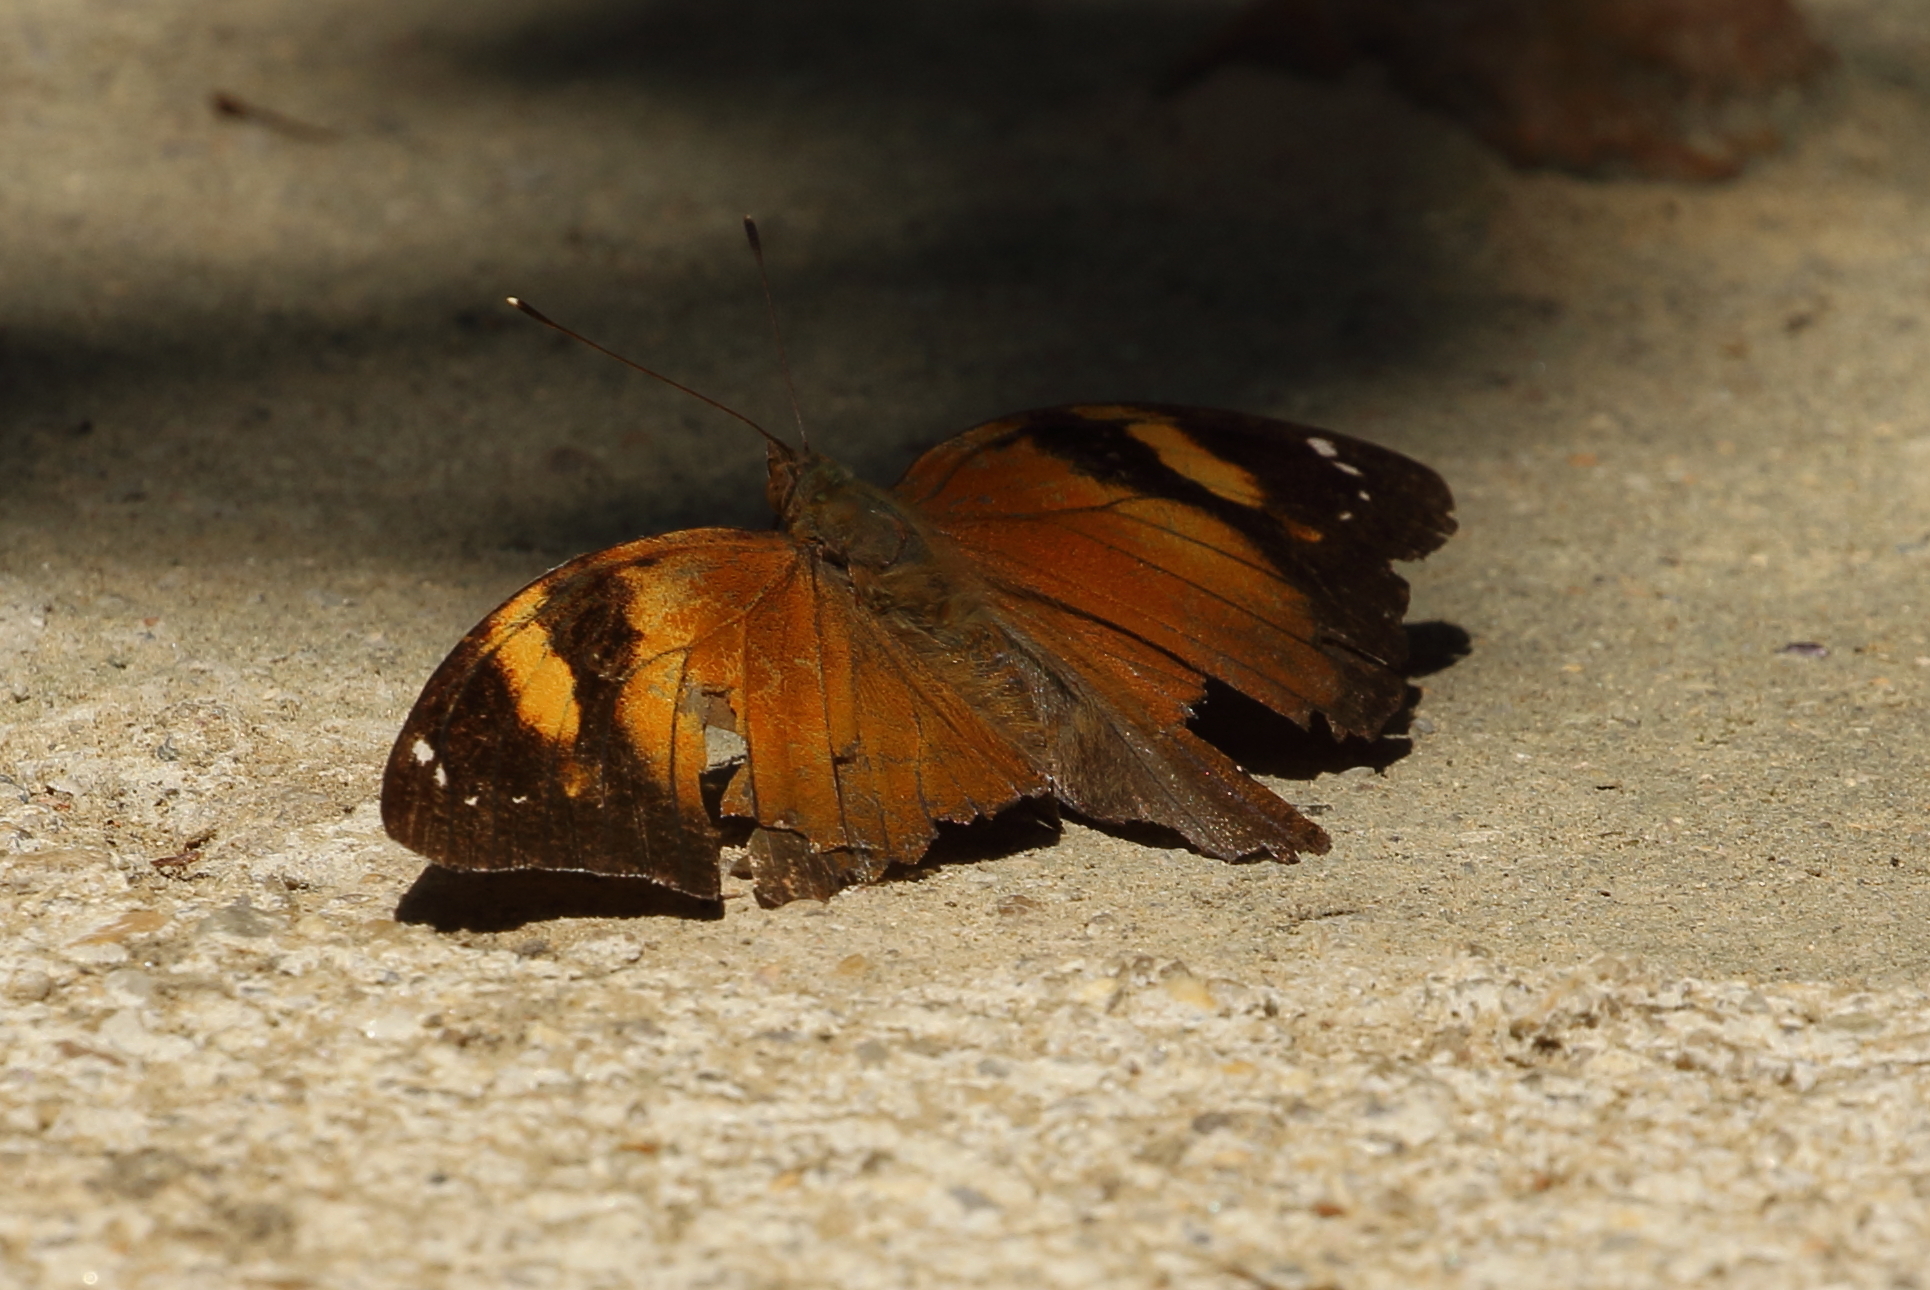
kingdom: Animalia
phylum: Arthropoda
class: Insecta
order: Lepidoptera
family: Nymphalidae
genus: Doleschallia
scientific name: Doleschallia bisaltide
